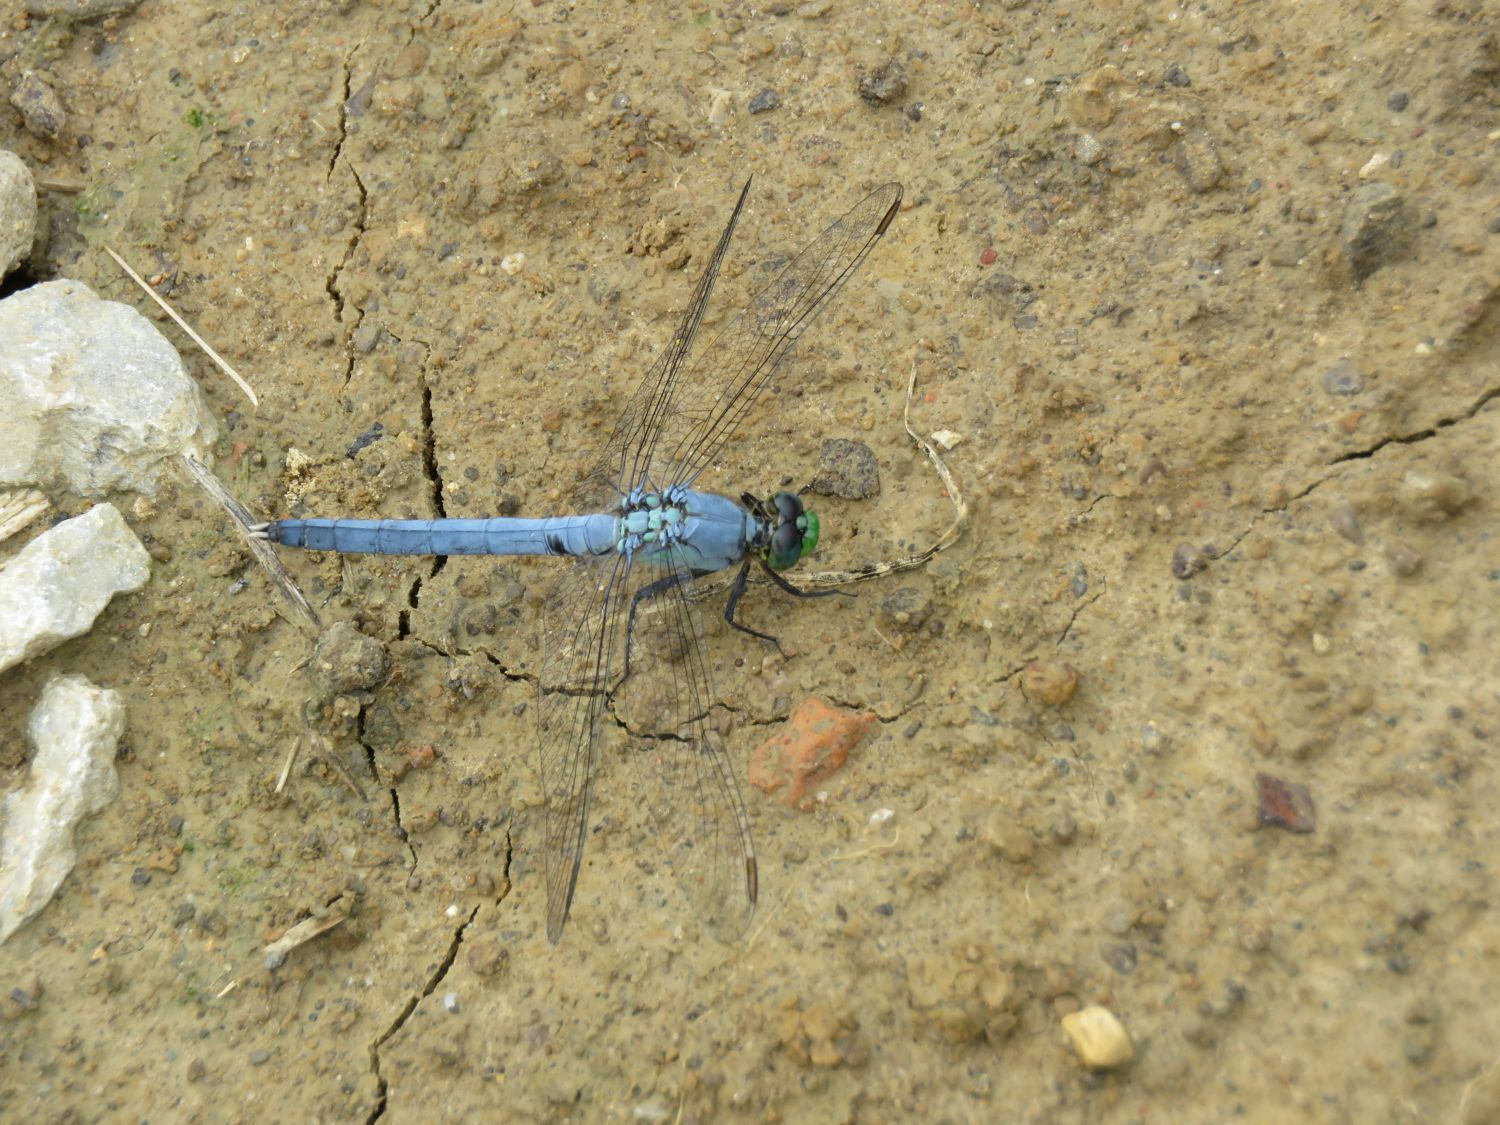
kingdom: Animalia
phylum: Arthropoda
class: Insecta
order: Odonata
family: Libellulidae
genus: Erythemis
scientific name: Erythemis simplicicollis
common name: Eastern pondhawk
